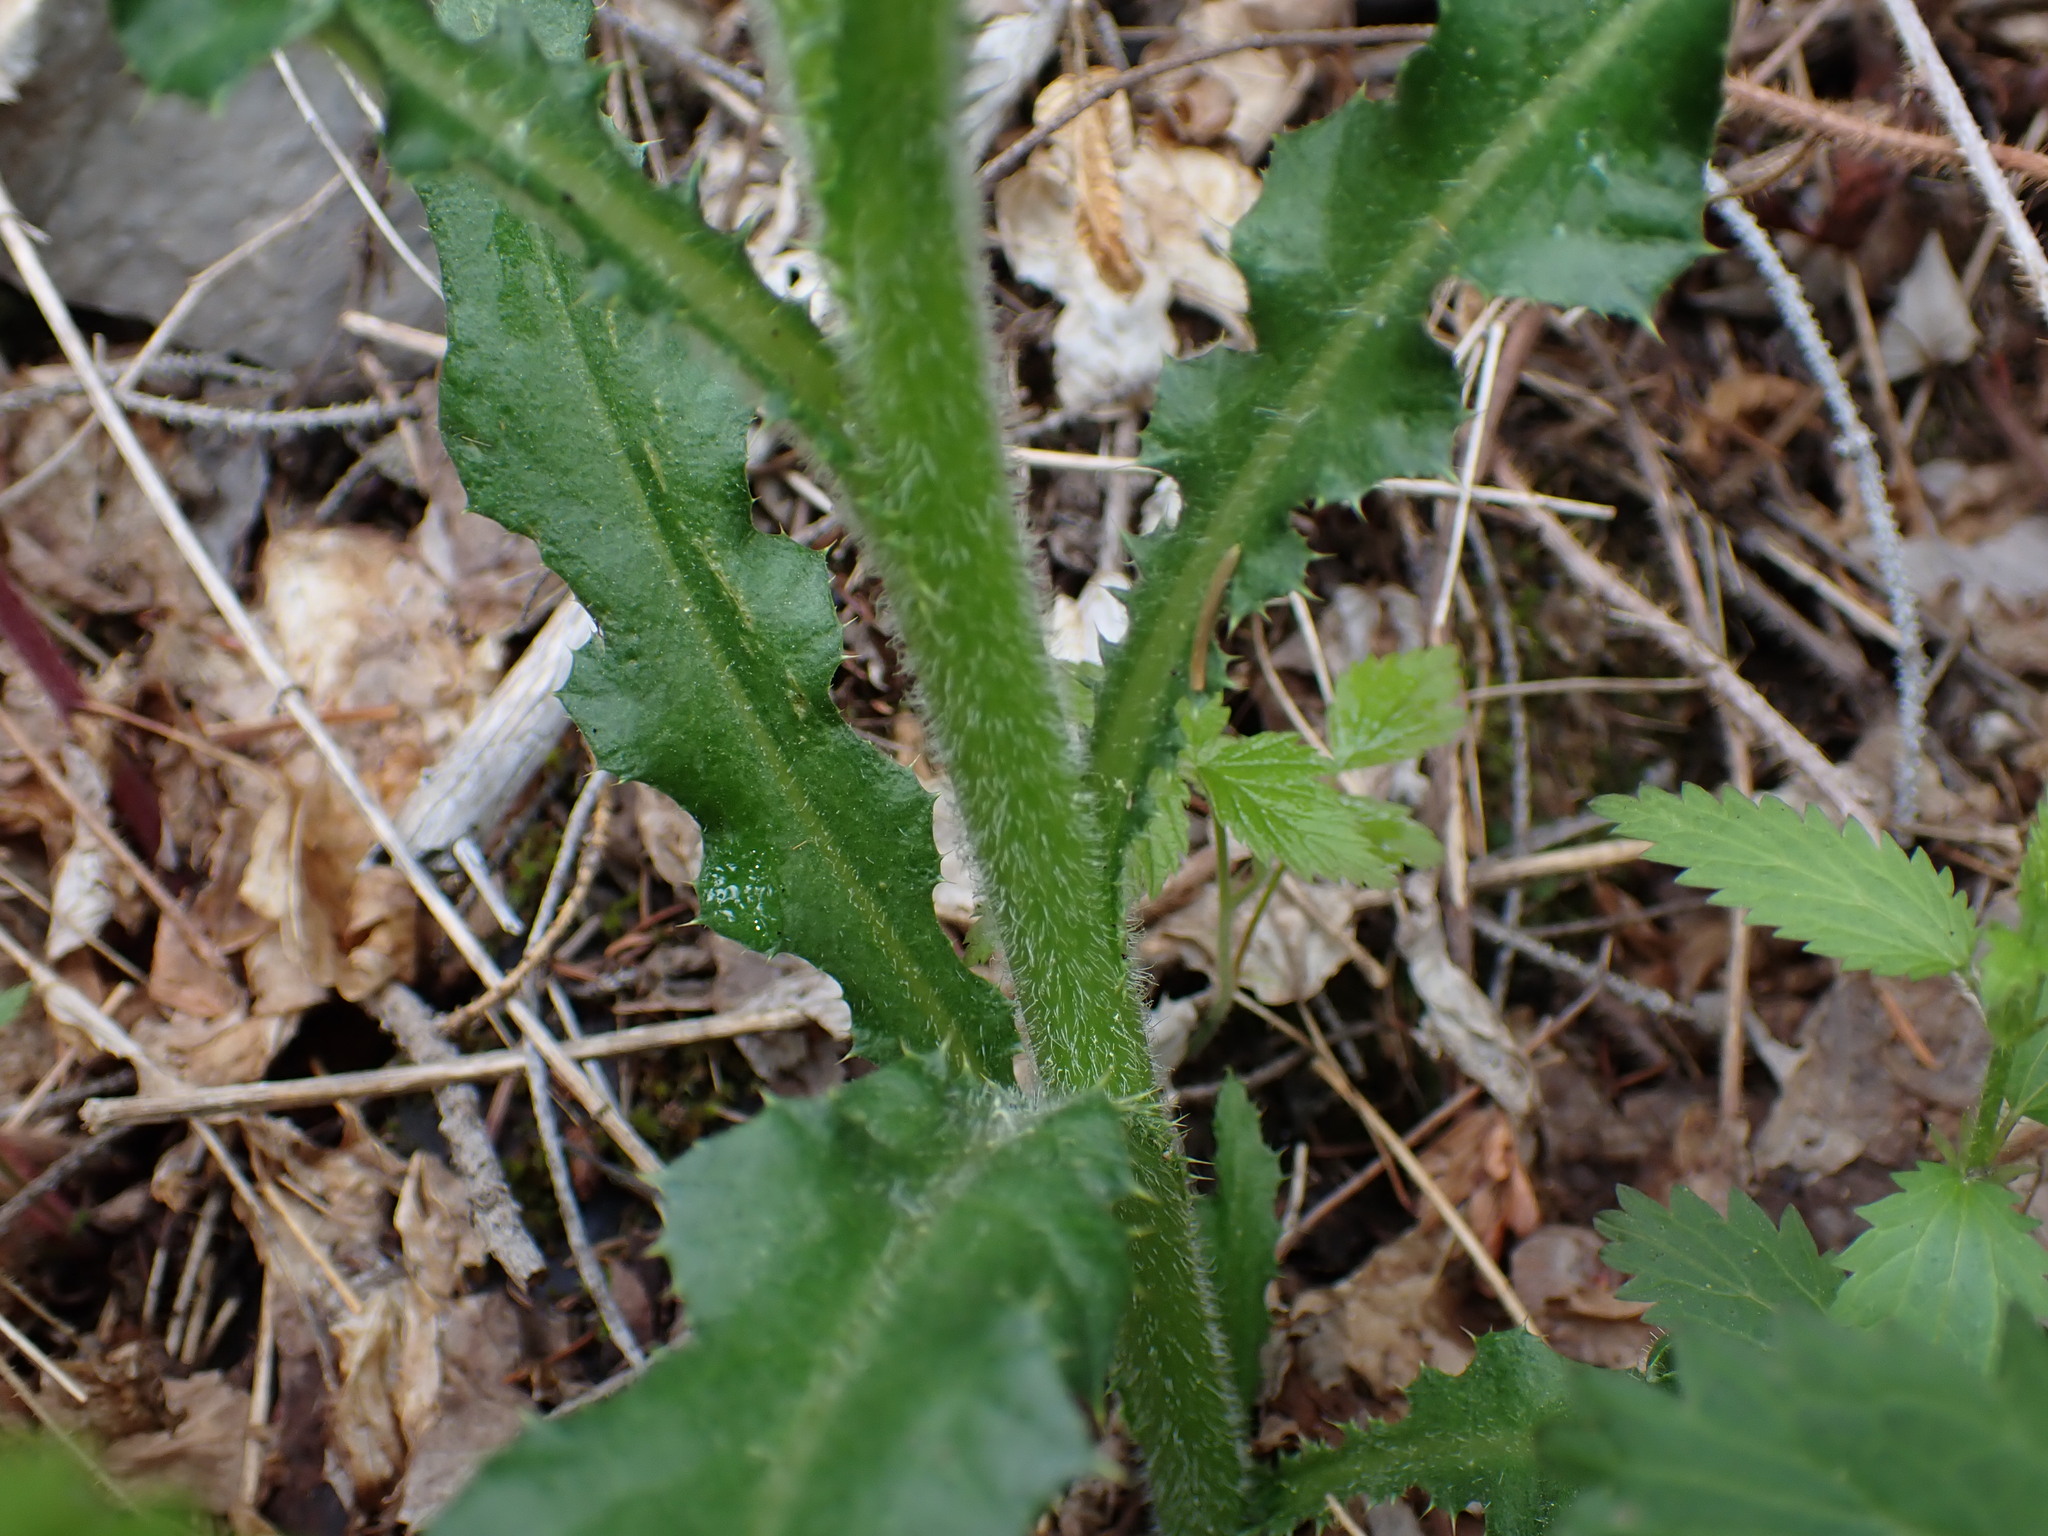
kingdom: Plantae
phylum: Tracheophyta
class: Magnoliopsida
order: Asterales
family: Asteraceae
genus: Cirsium
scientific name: Cirsium arvense
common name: Creeping thistle
